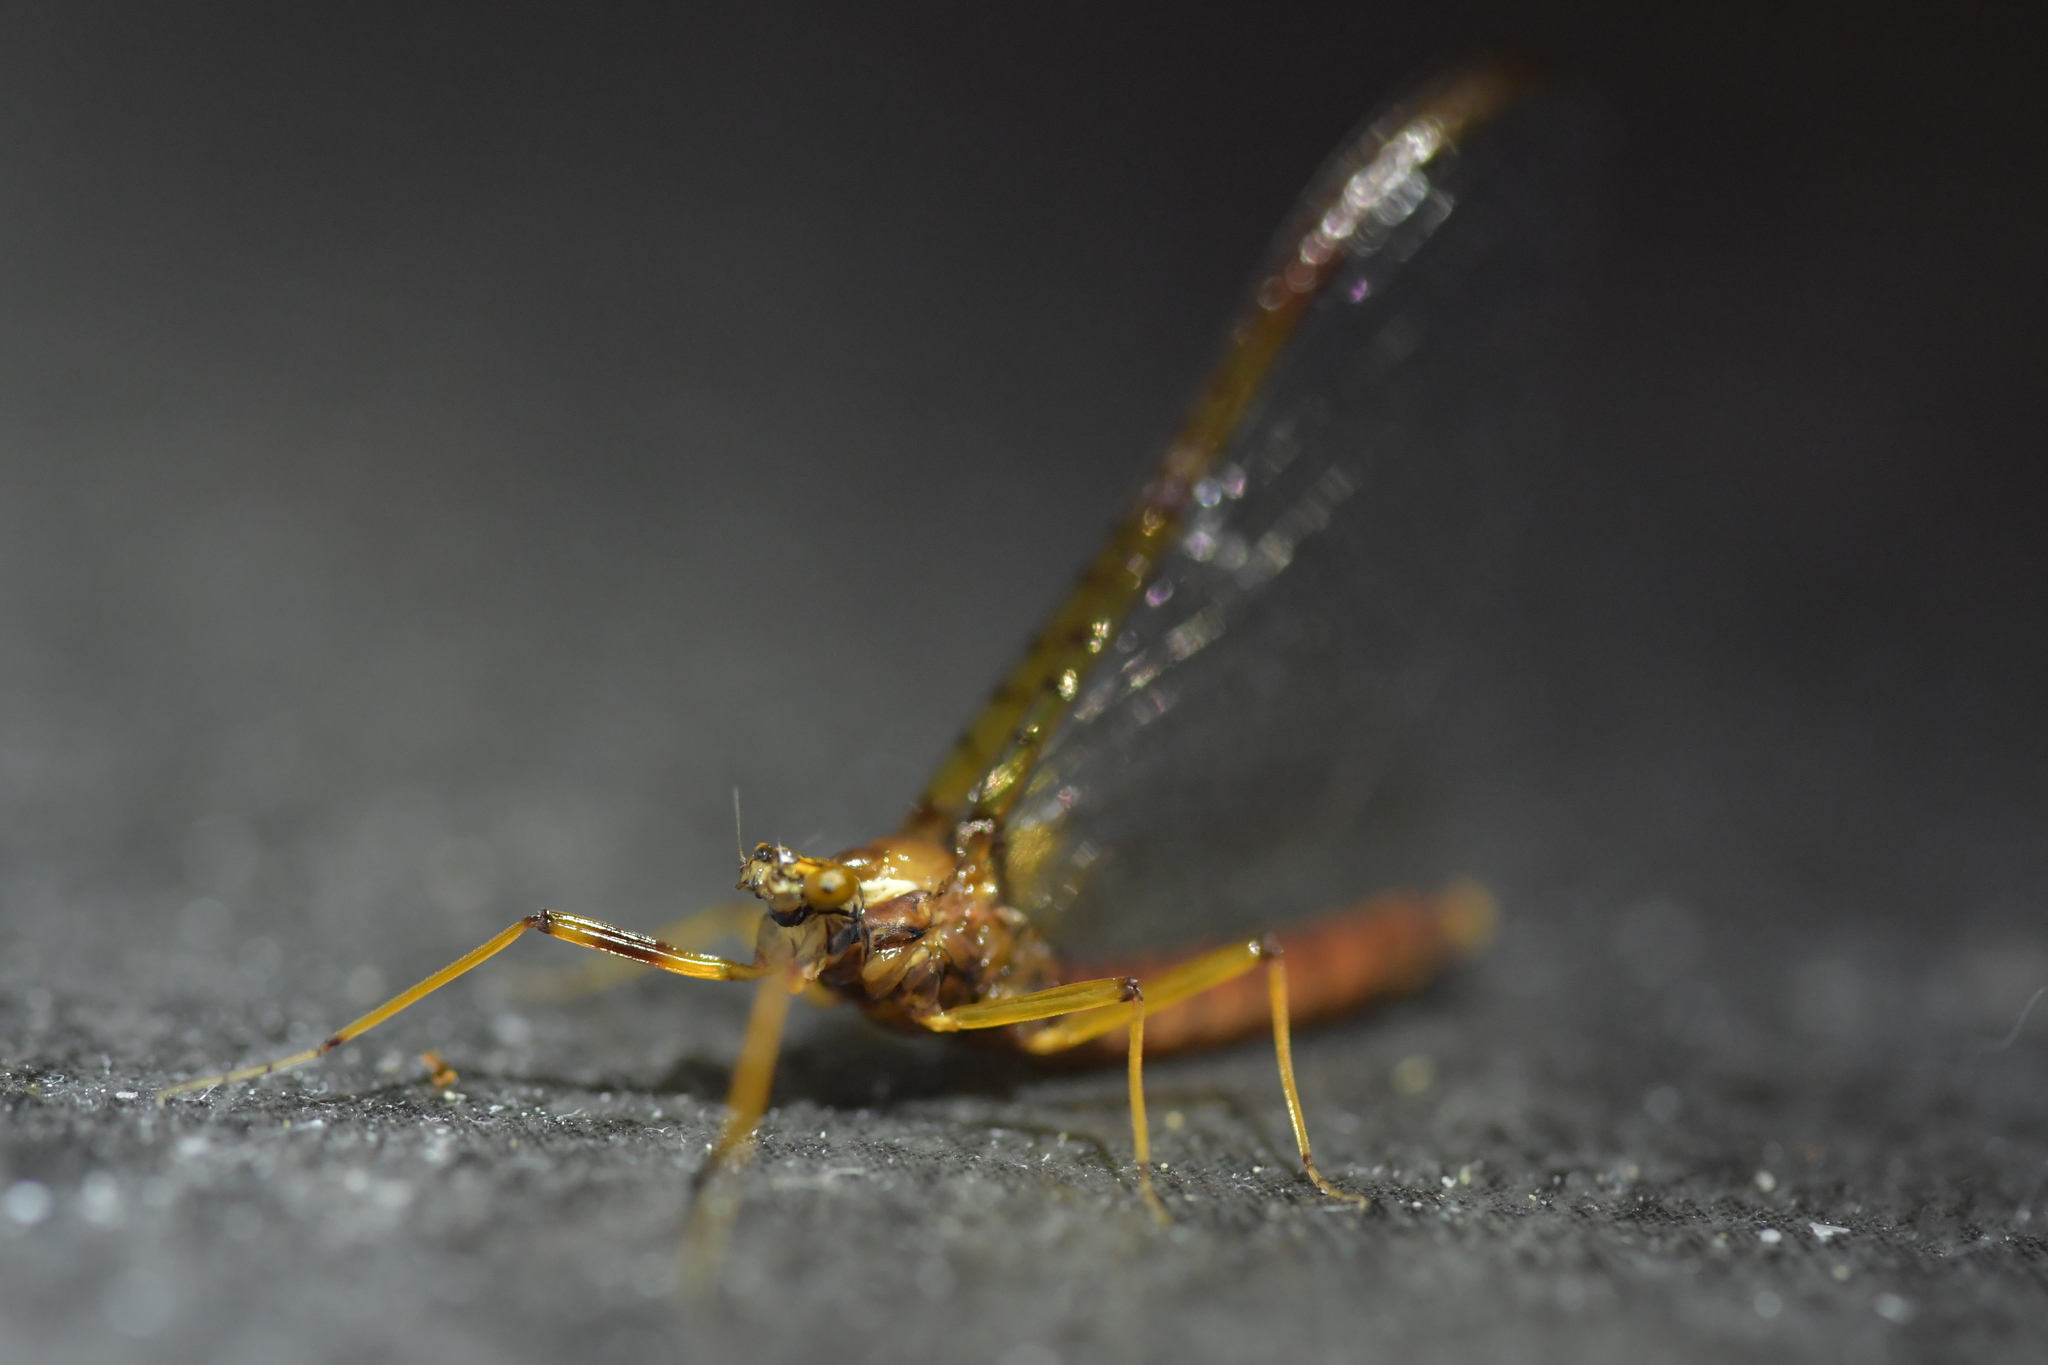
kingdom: Animalia
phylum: Arthropoda
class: Insecta
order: Ephemeroptera
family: Leptophlebiidae
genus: Zephlebia
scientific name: Zephlebia borealis
